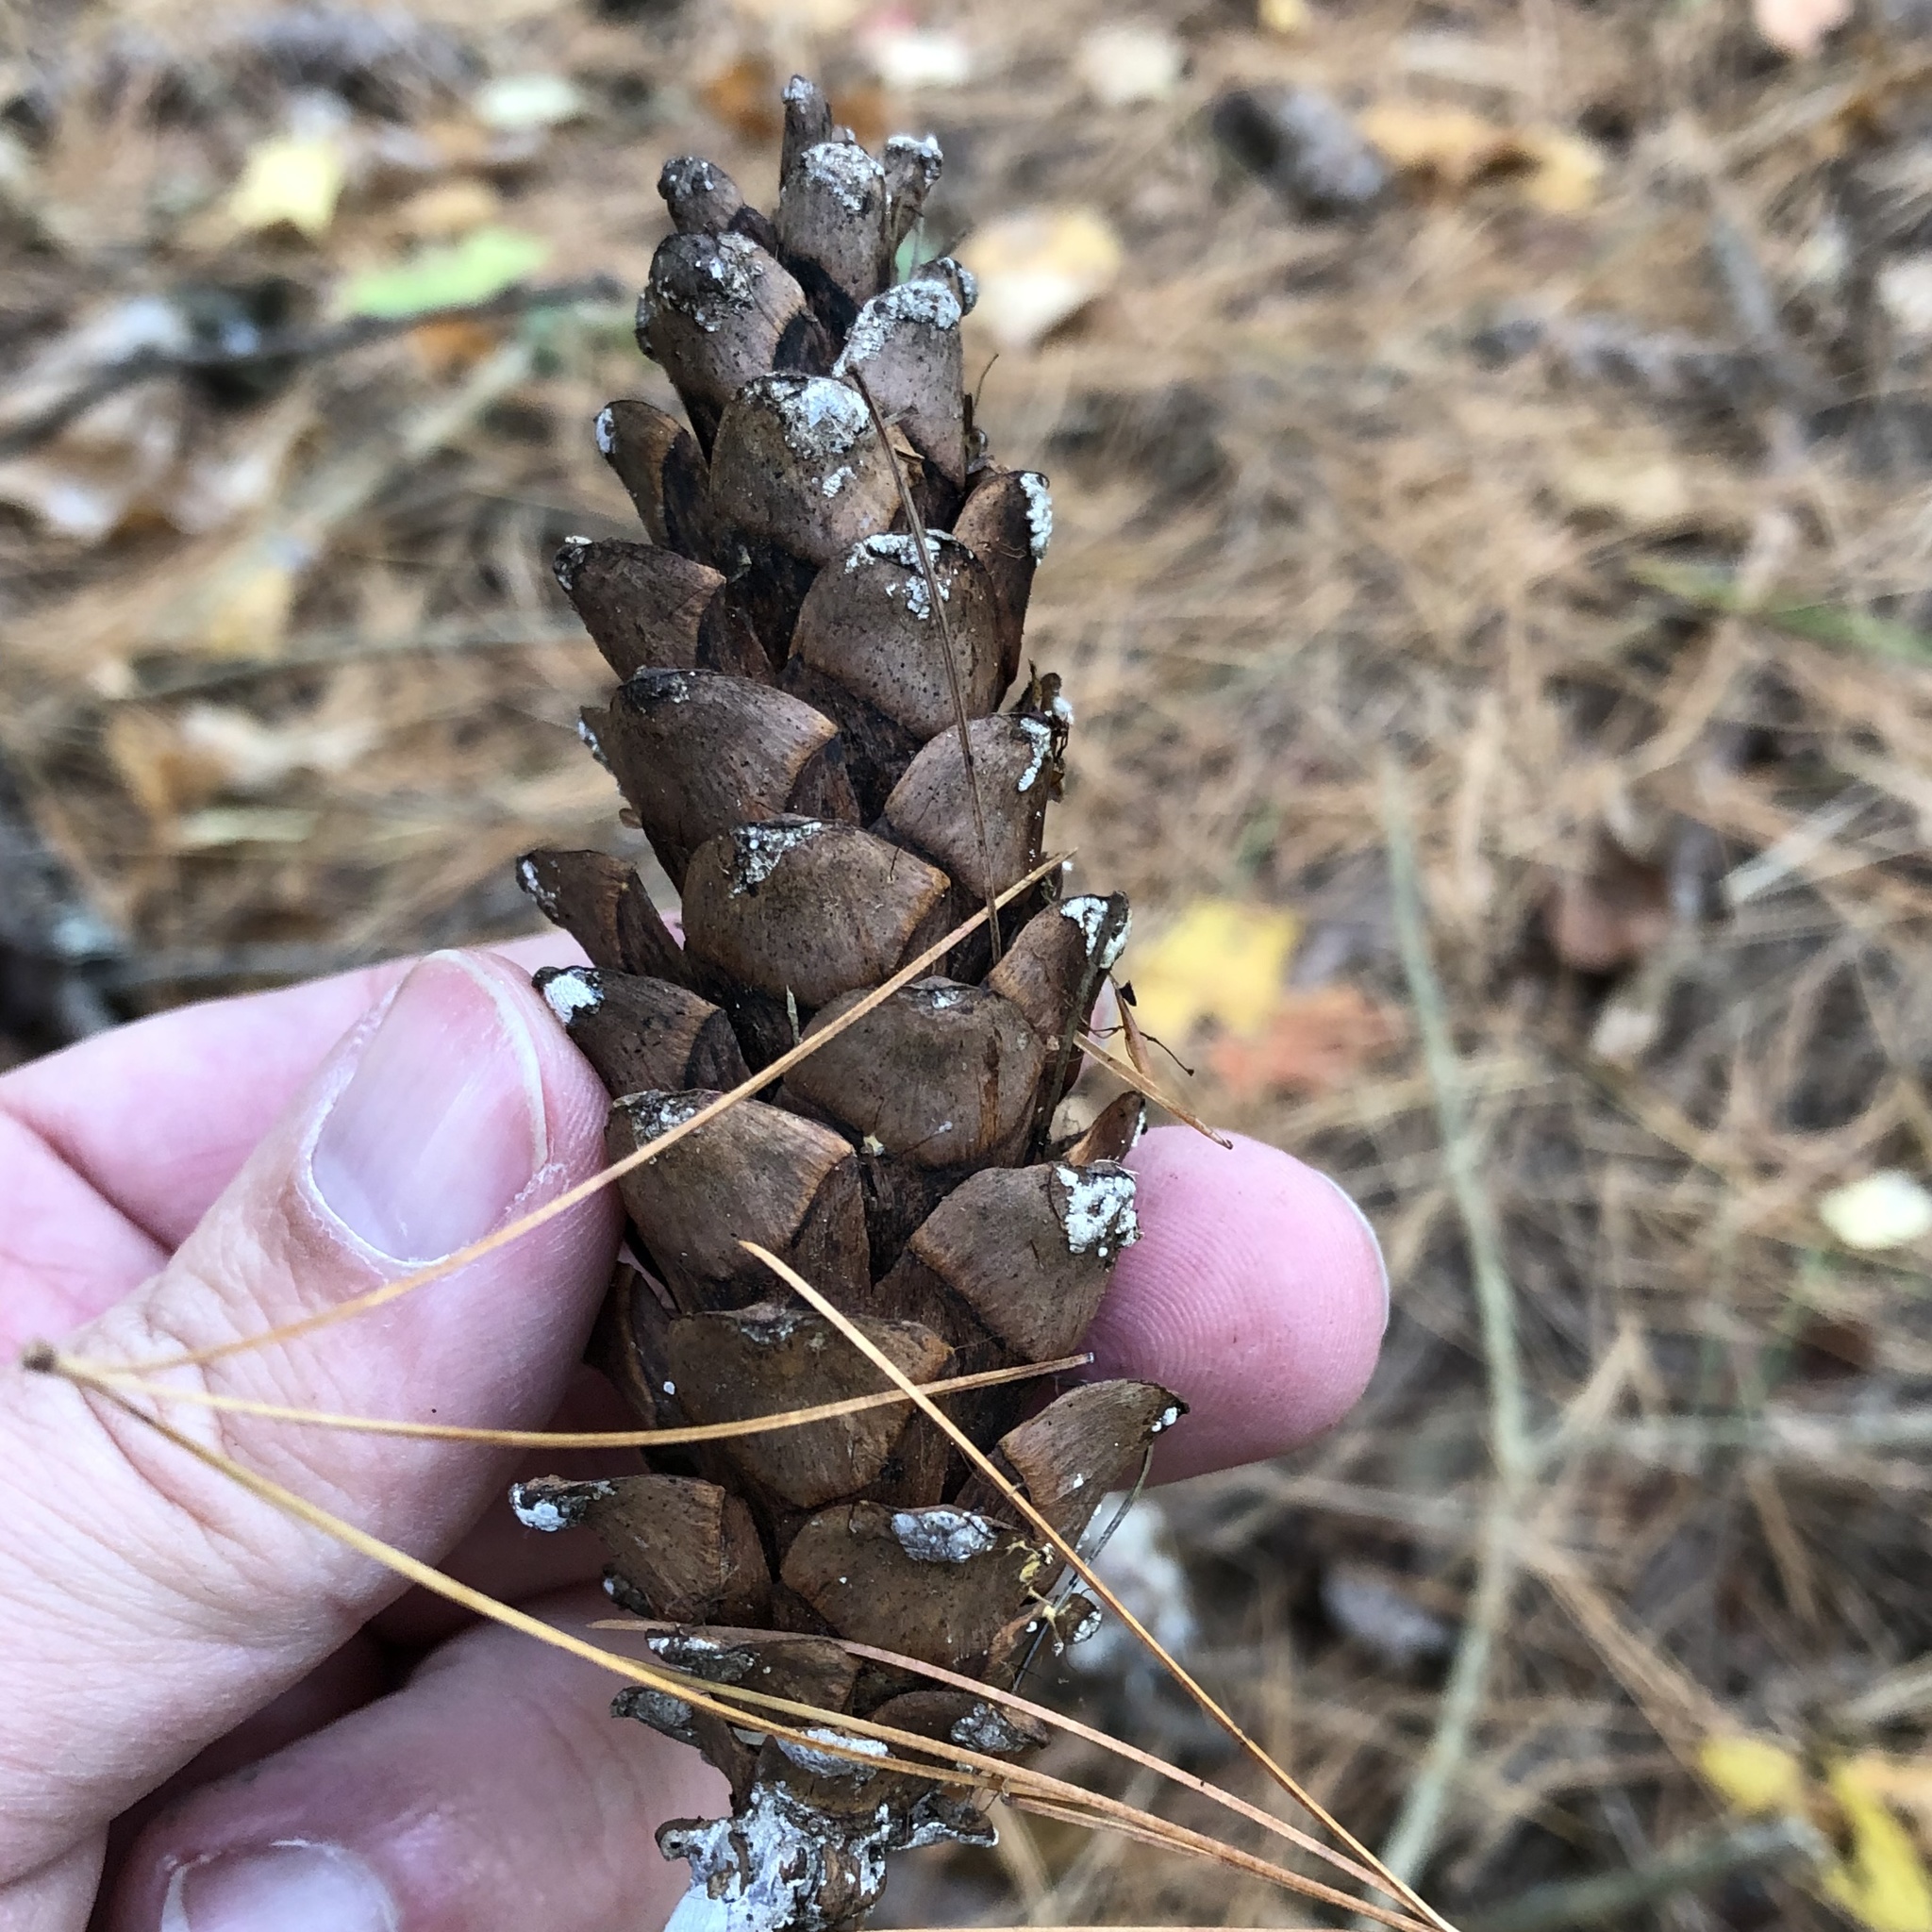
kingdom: Plantae
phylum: Tracheophyta
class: Pinopsida
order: Pinales
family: Pinaceae
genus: Pinus
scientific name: Pinus strobus
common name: Weymouth pine
